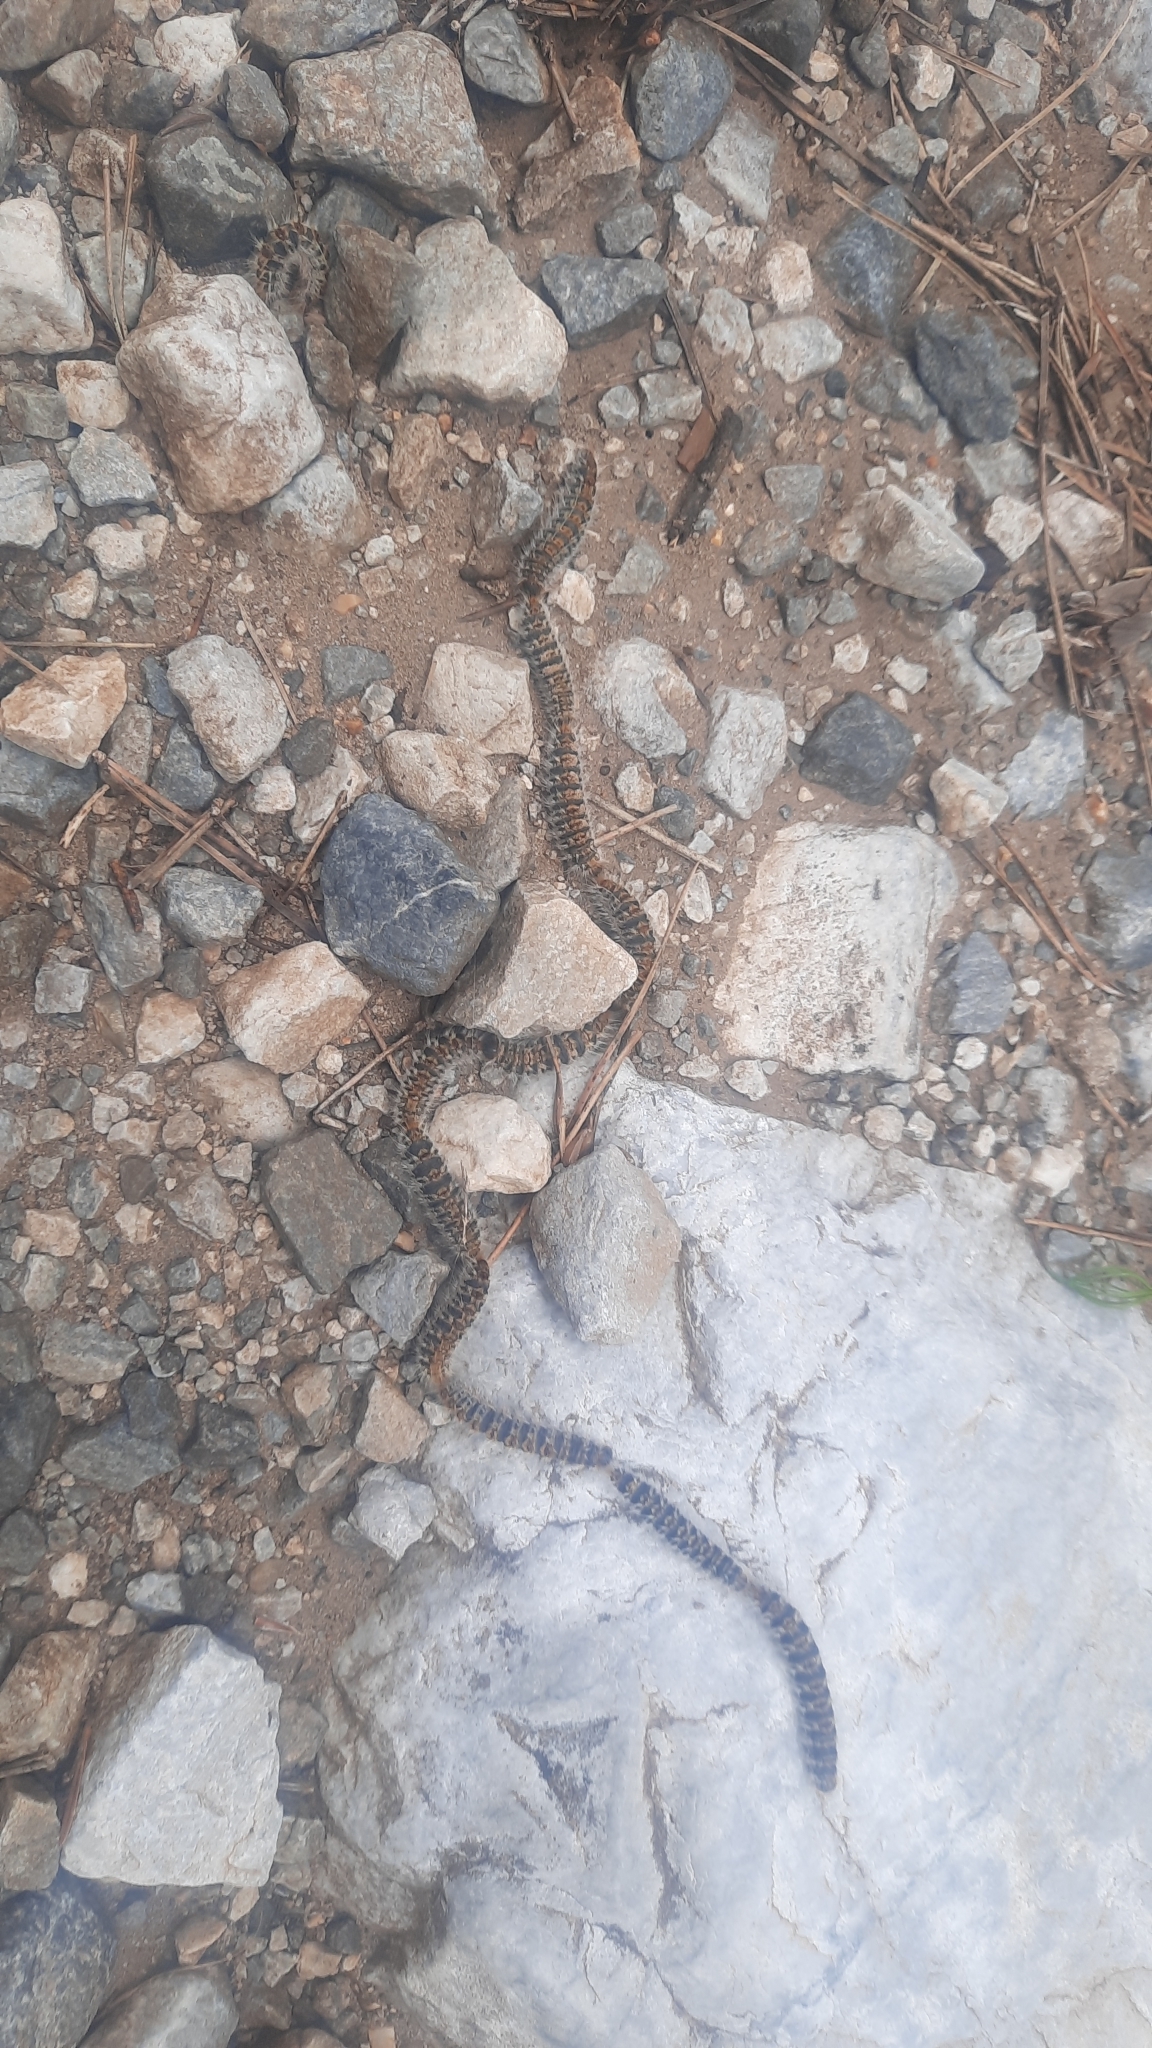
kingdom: Animalia
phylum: Arthropoda
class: Insecta
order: Lepidoptera
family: Notodontidae
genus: Thaumetopoea
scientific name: Thaumetopoea pityocampa
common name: Pine processionary
